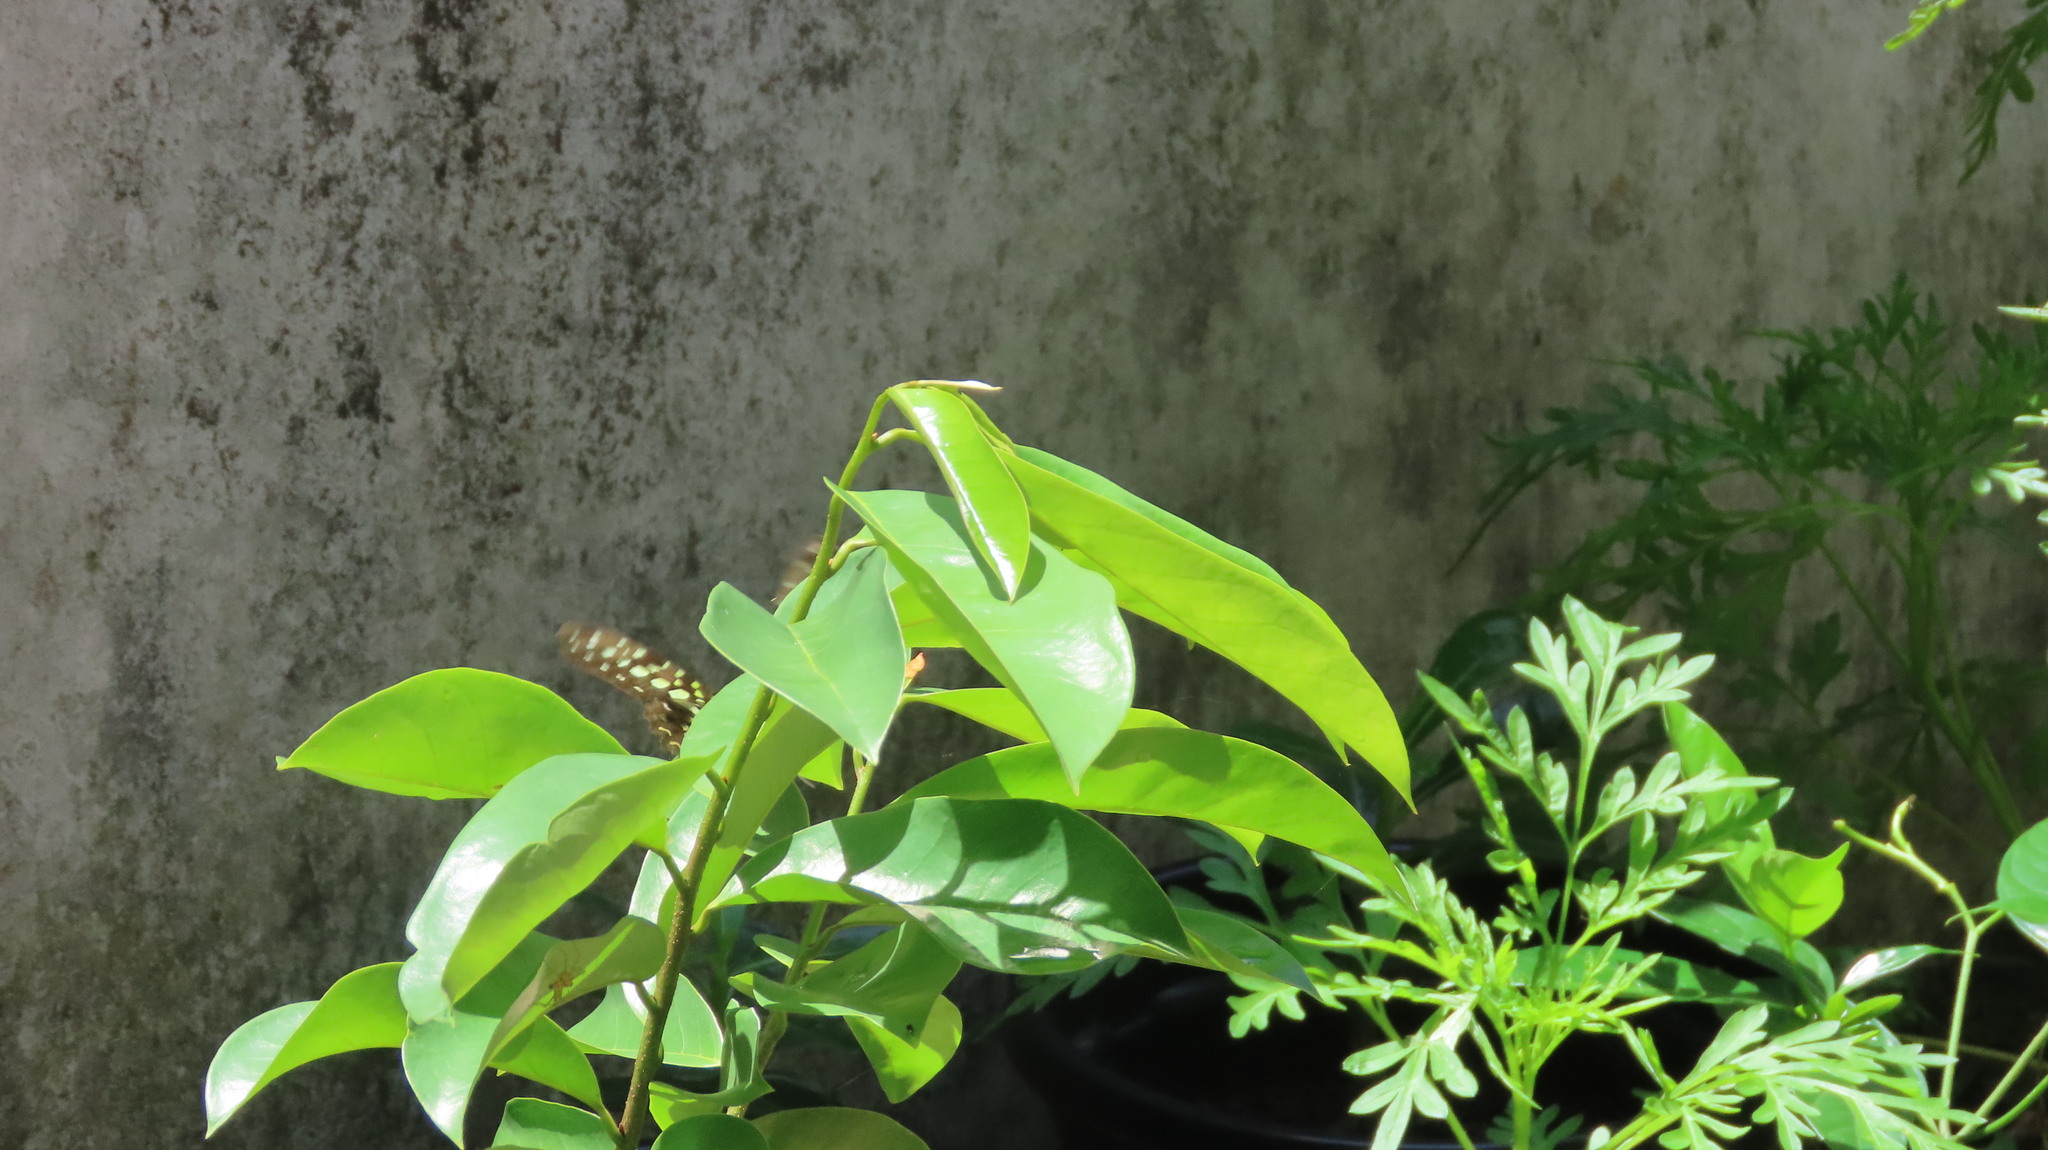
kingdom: Animalia
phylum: Arthropoda
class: Insecta
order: Lepidoptera
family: Papilionidae
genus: Graphium
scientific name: Graphium agamemnon
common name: Tailed jay
